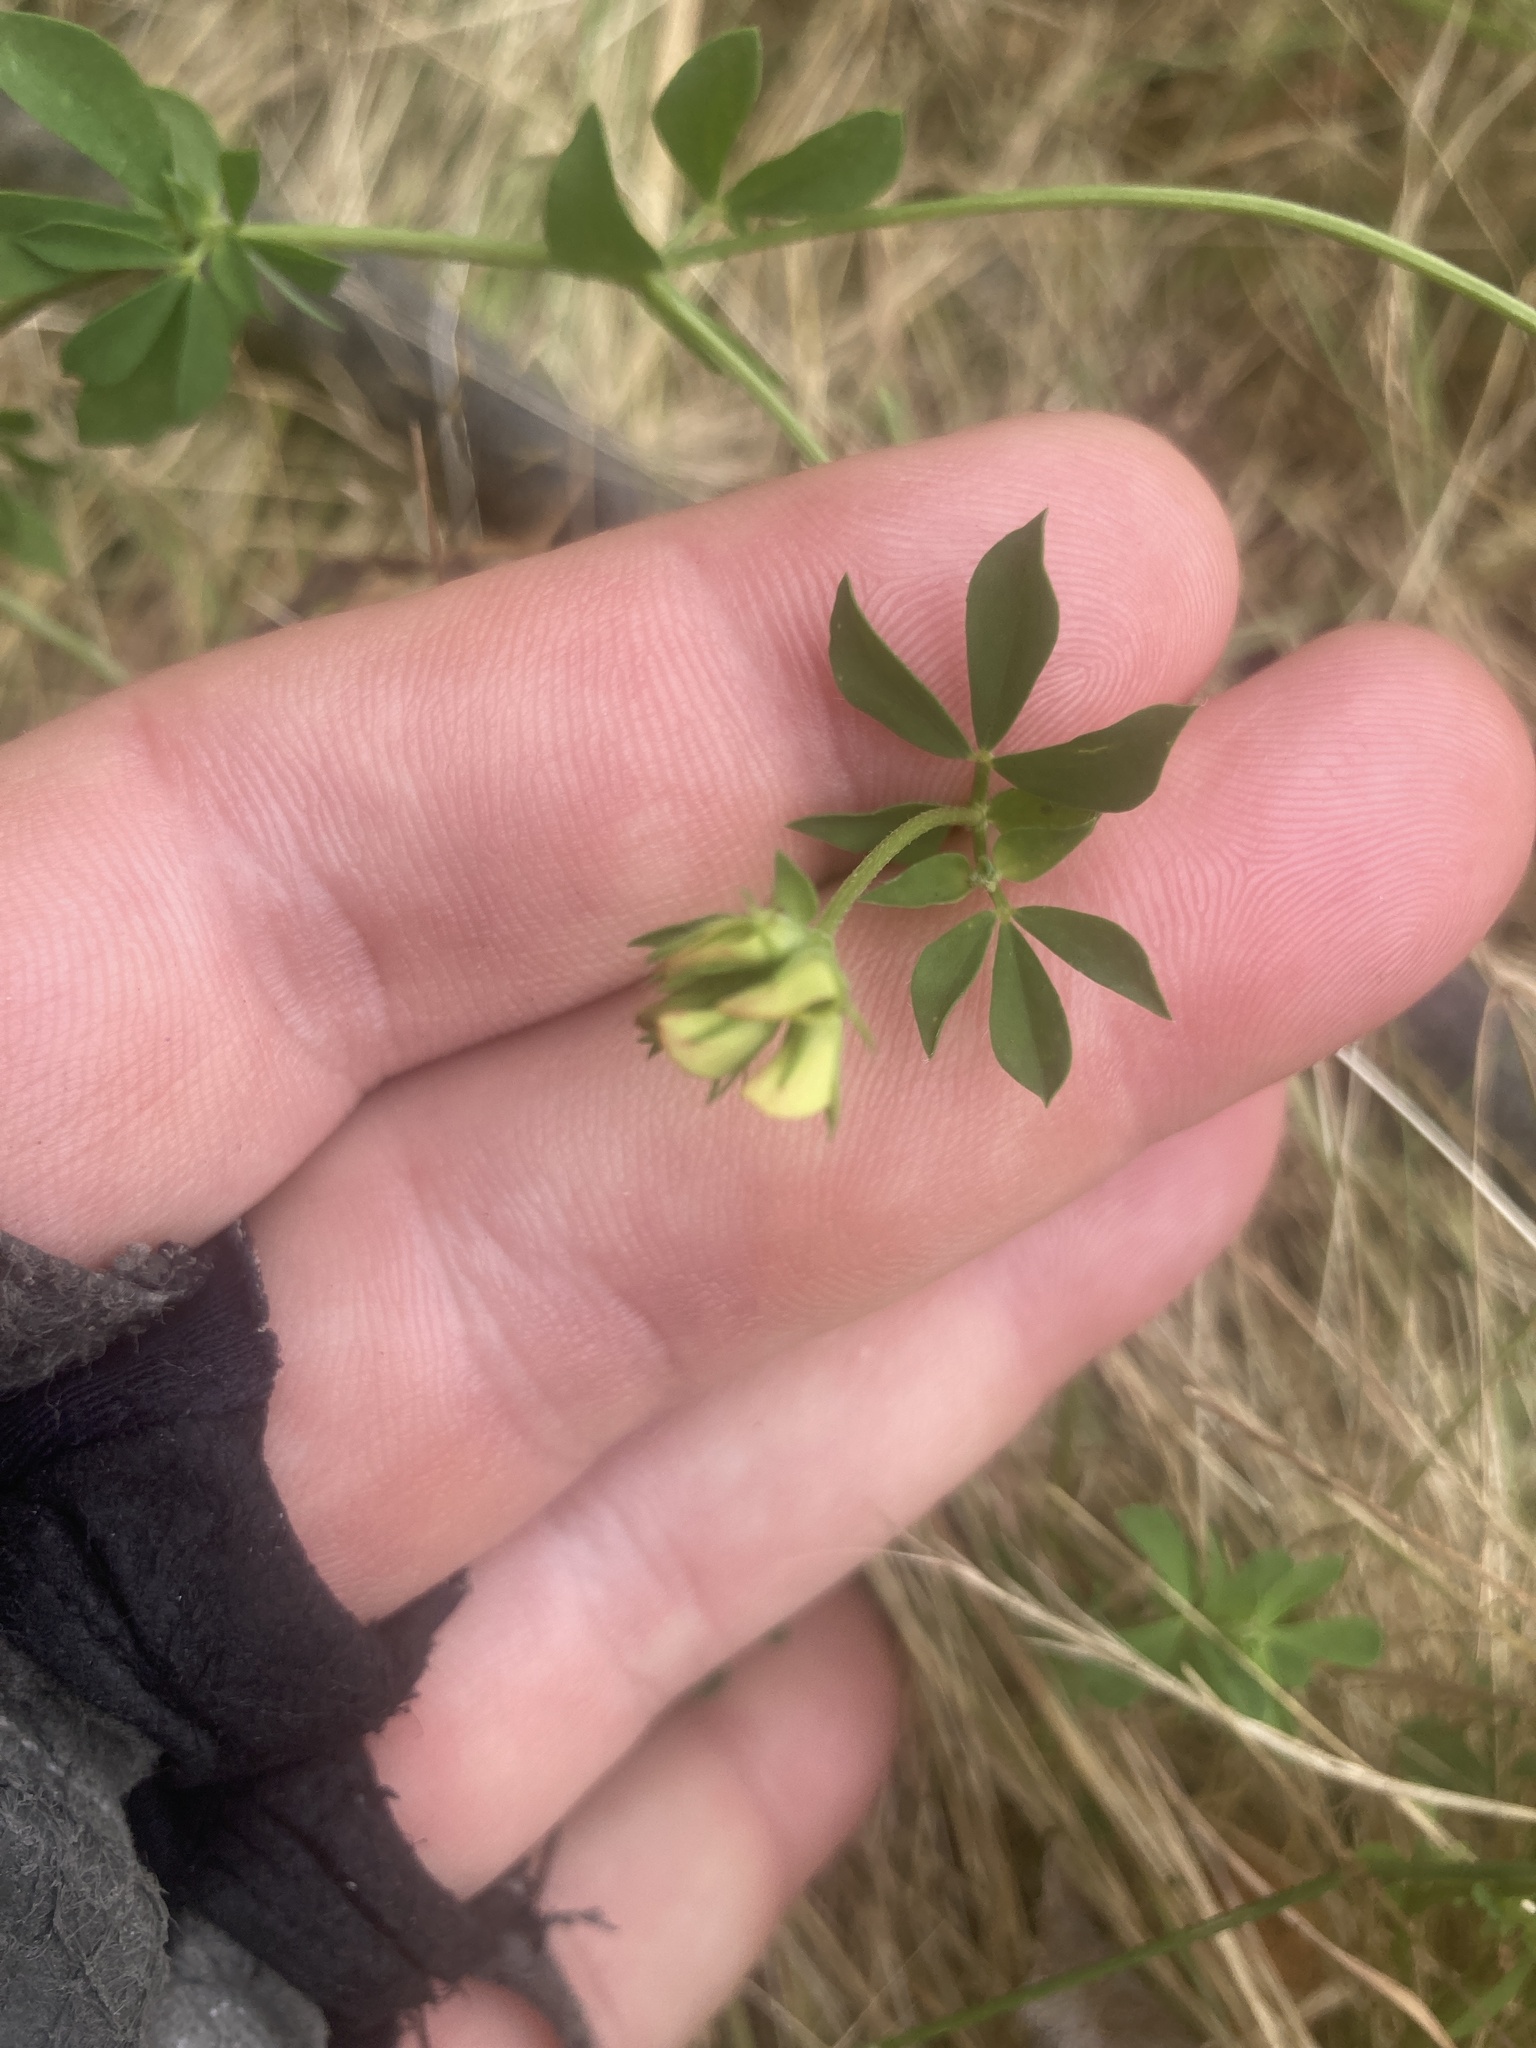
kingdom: Plantae
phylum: Tracheophyta
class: Magnoliopsida
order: Fabales
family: Fabaceae
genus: Lotus
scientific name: Lotus corniculatus
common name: Common bird's-foot-trefoil
